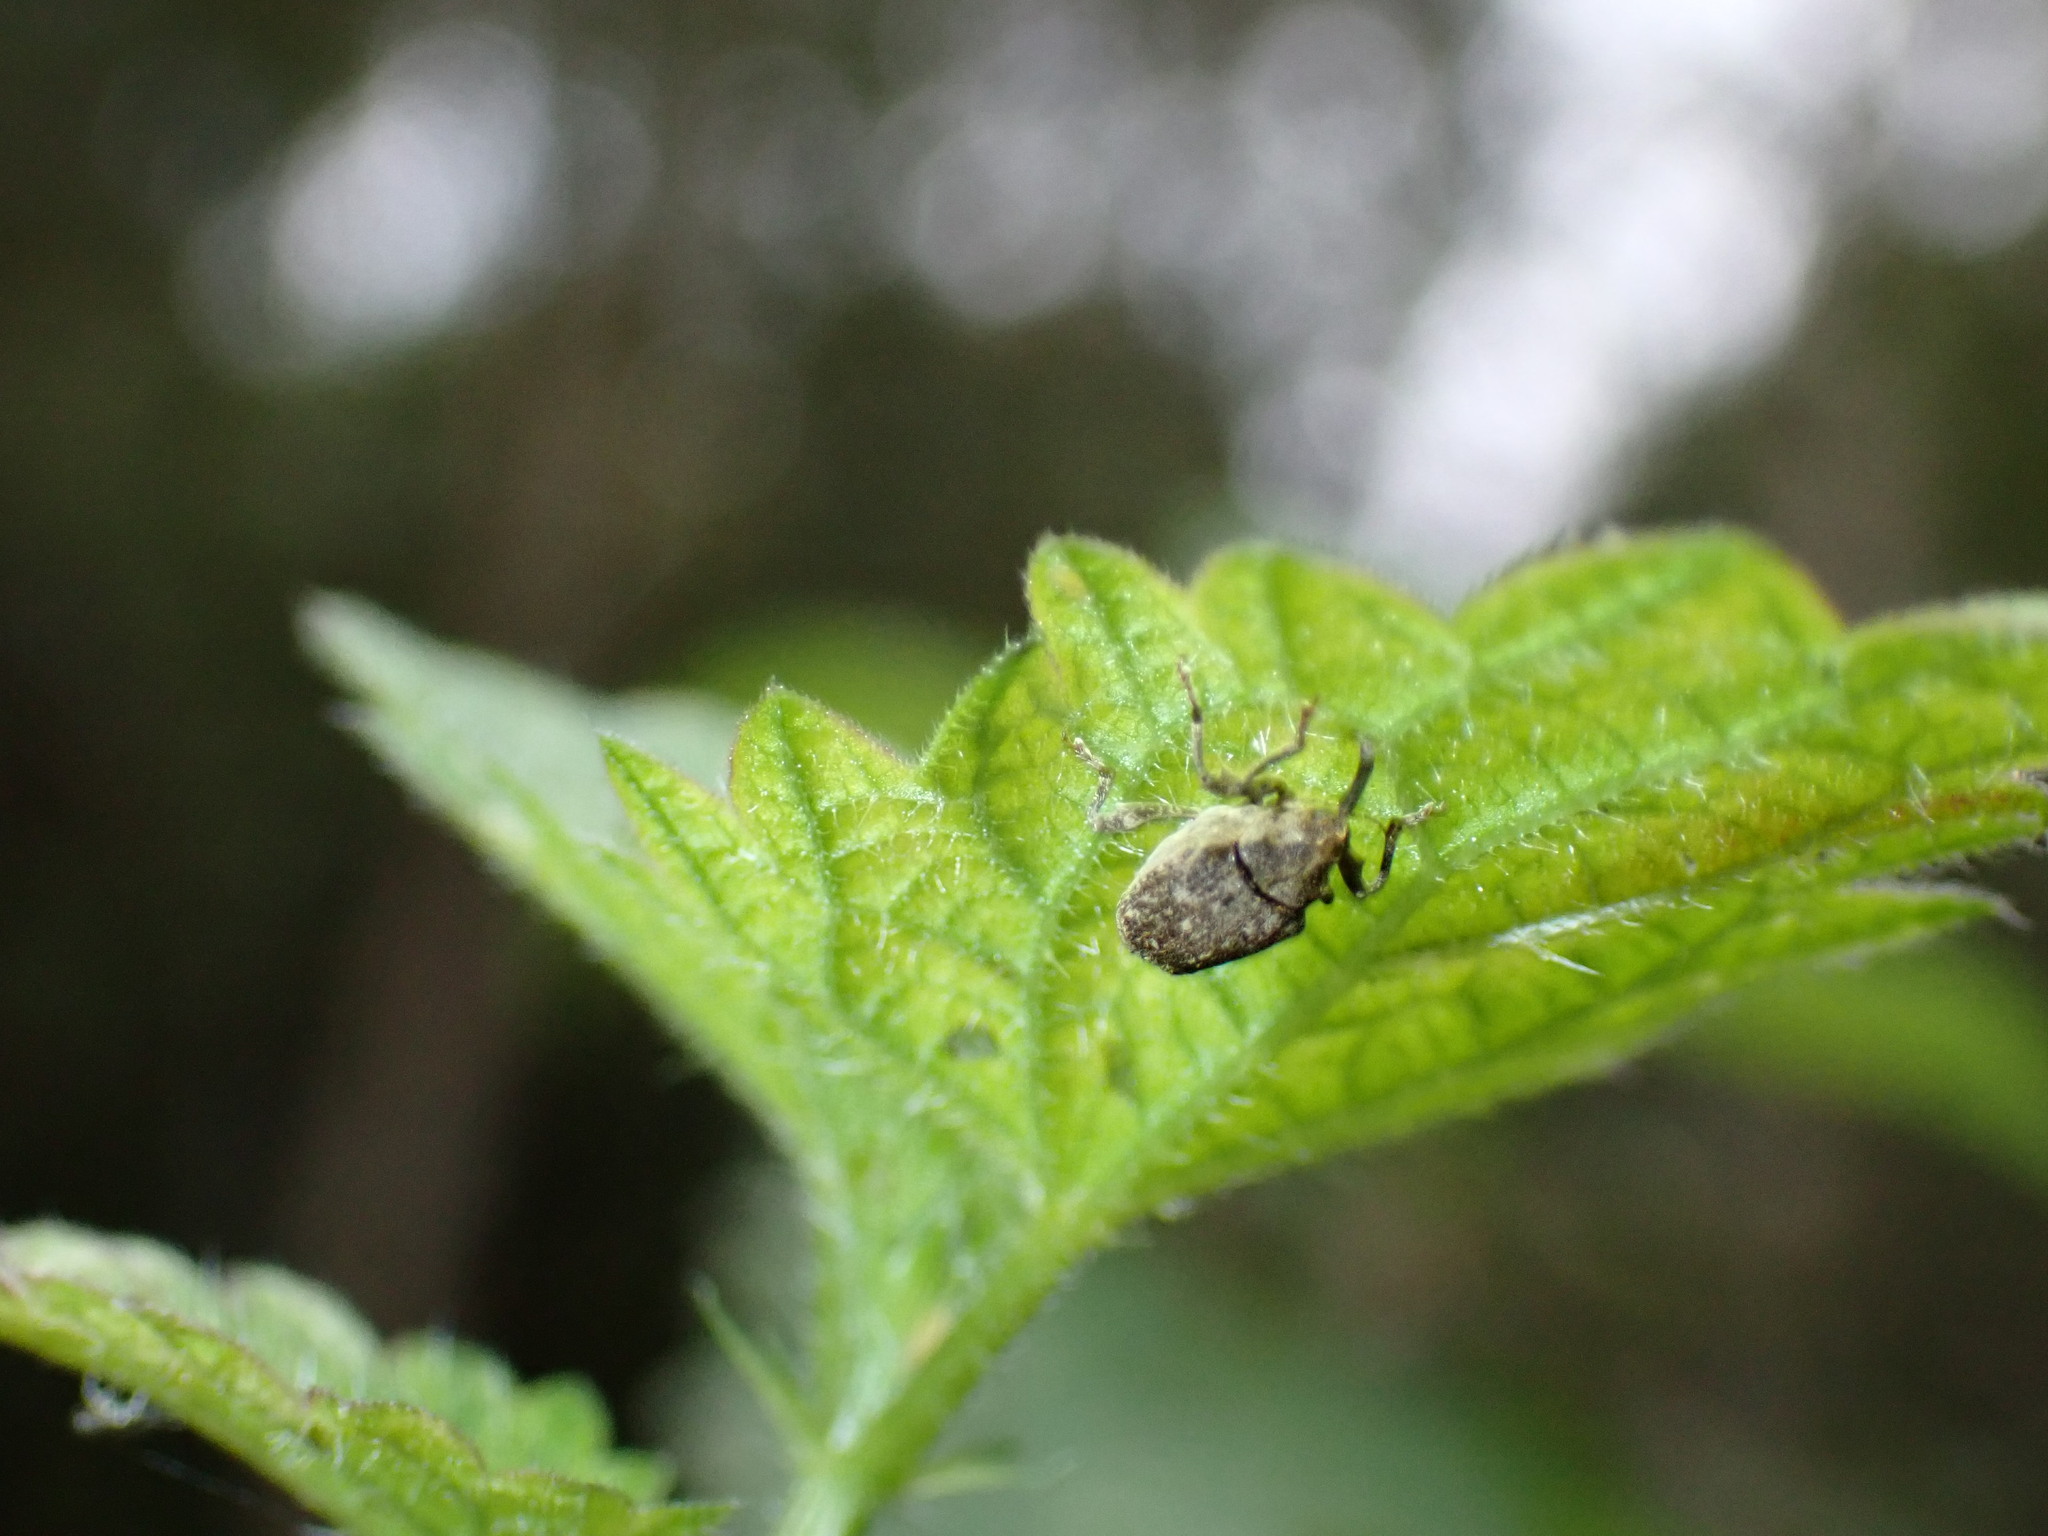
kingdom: Animalia
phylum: Arthropoda
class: Insecta
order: Coleoptera
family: Curculionidae
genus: Parethelcus
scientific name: Parethelcus pollinarius
